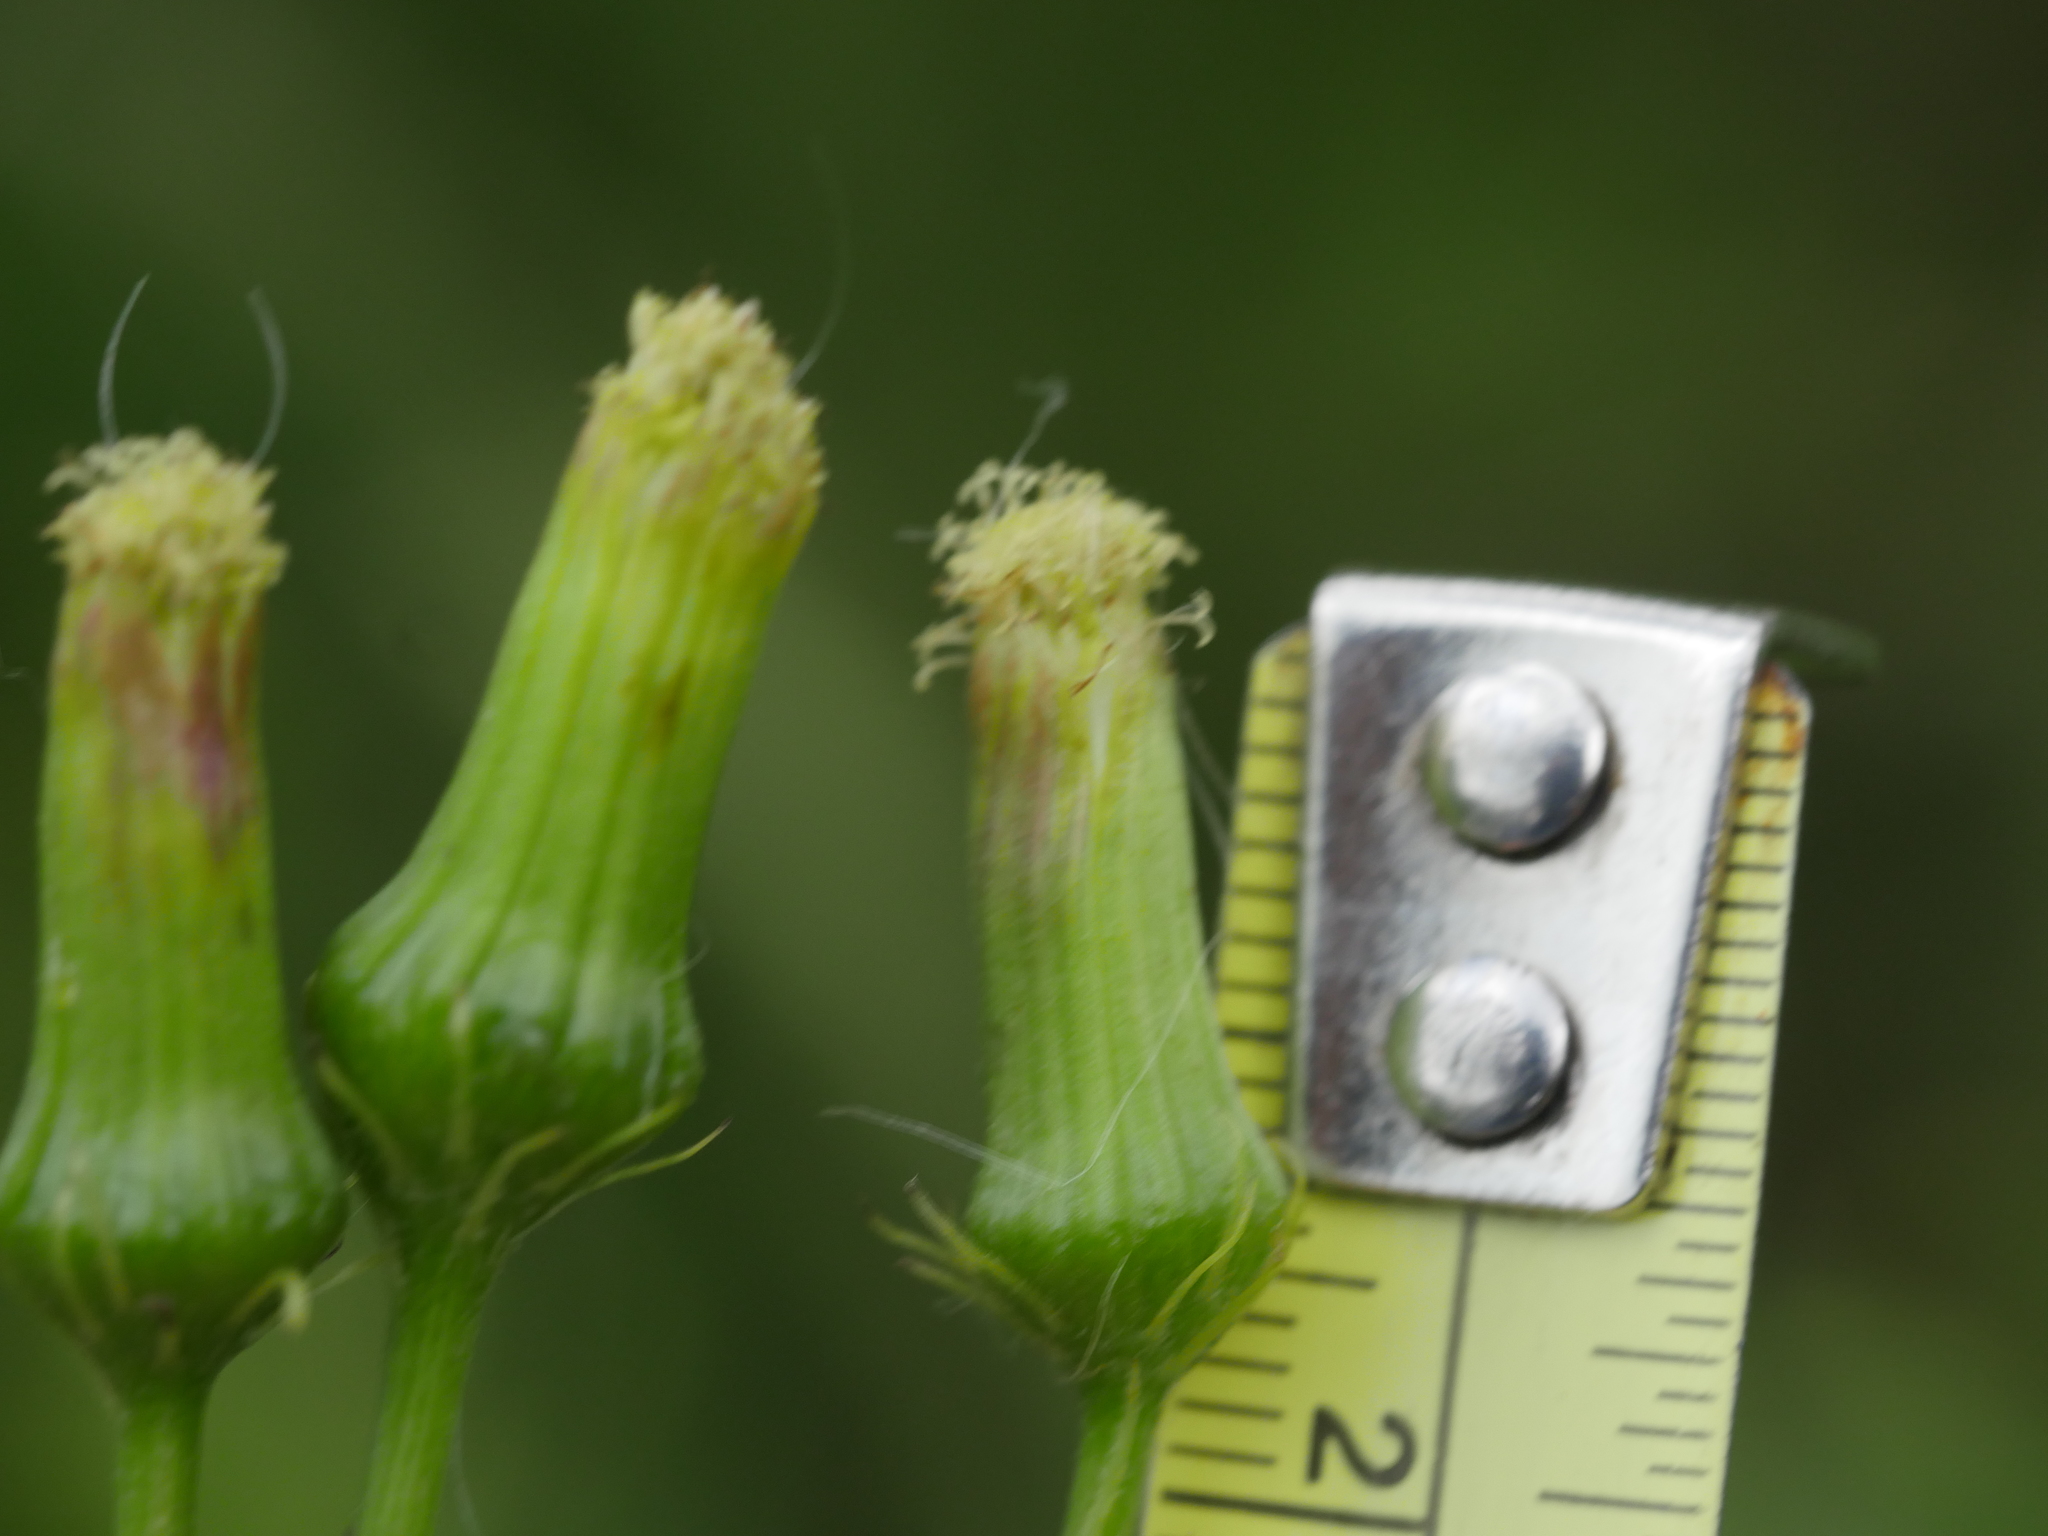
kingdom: Plantae
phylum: Tracheophyta
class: Magnoliopsida
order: Asterales
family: Asteraceae
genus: Erechtites
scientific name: Erechtites hieraciifolius
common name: American burnweed
